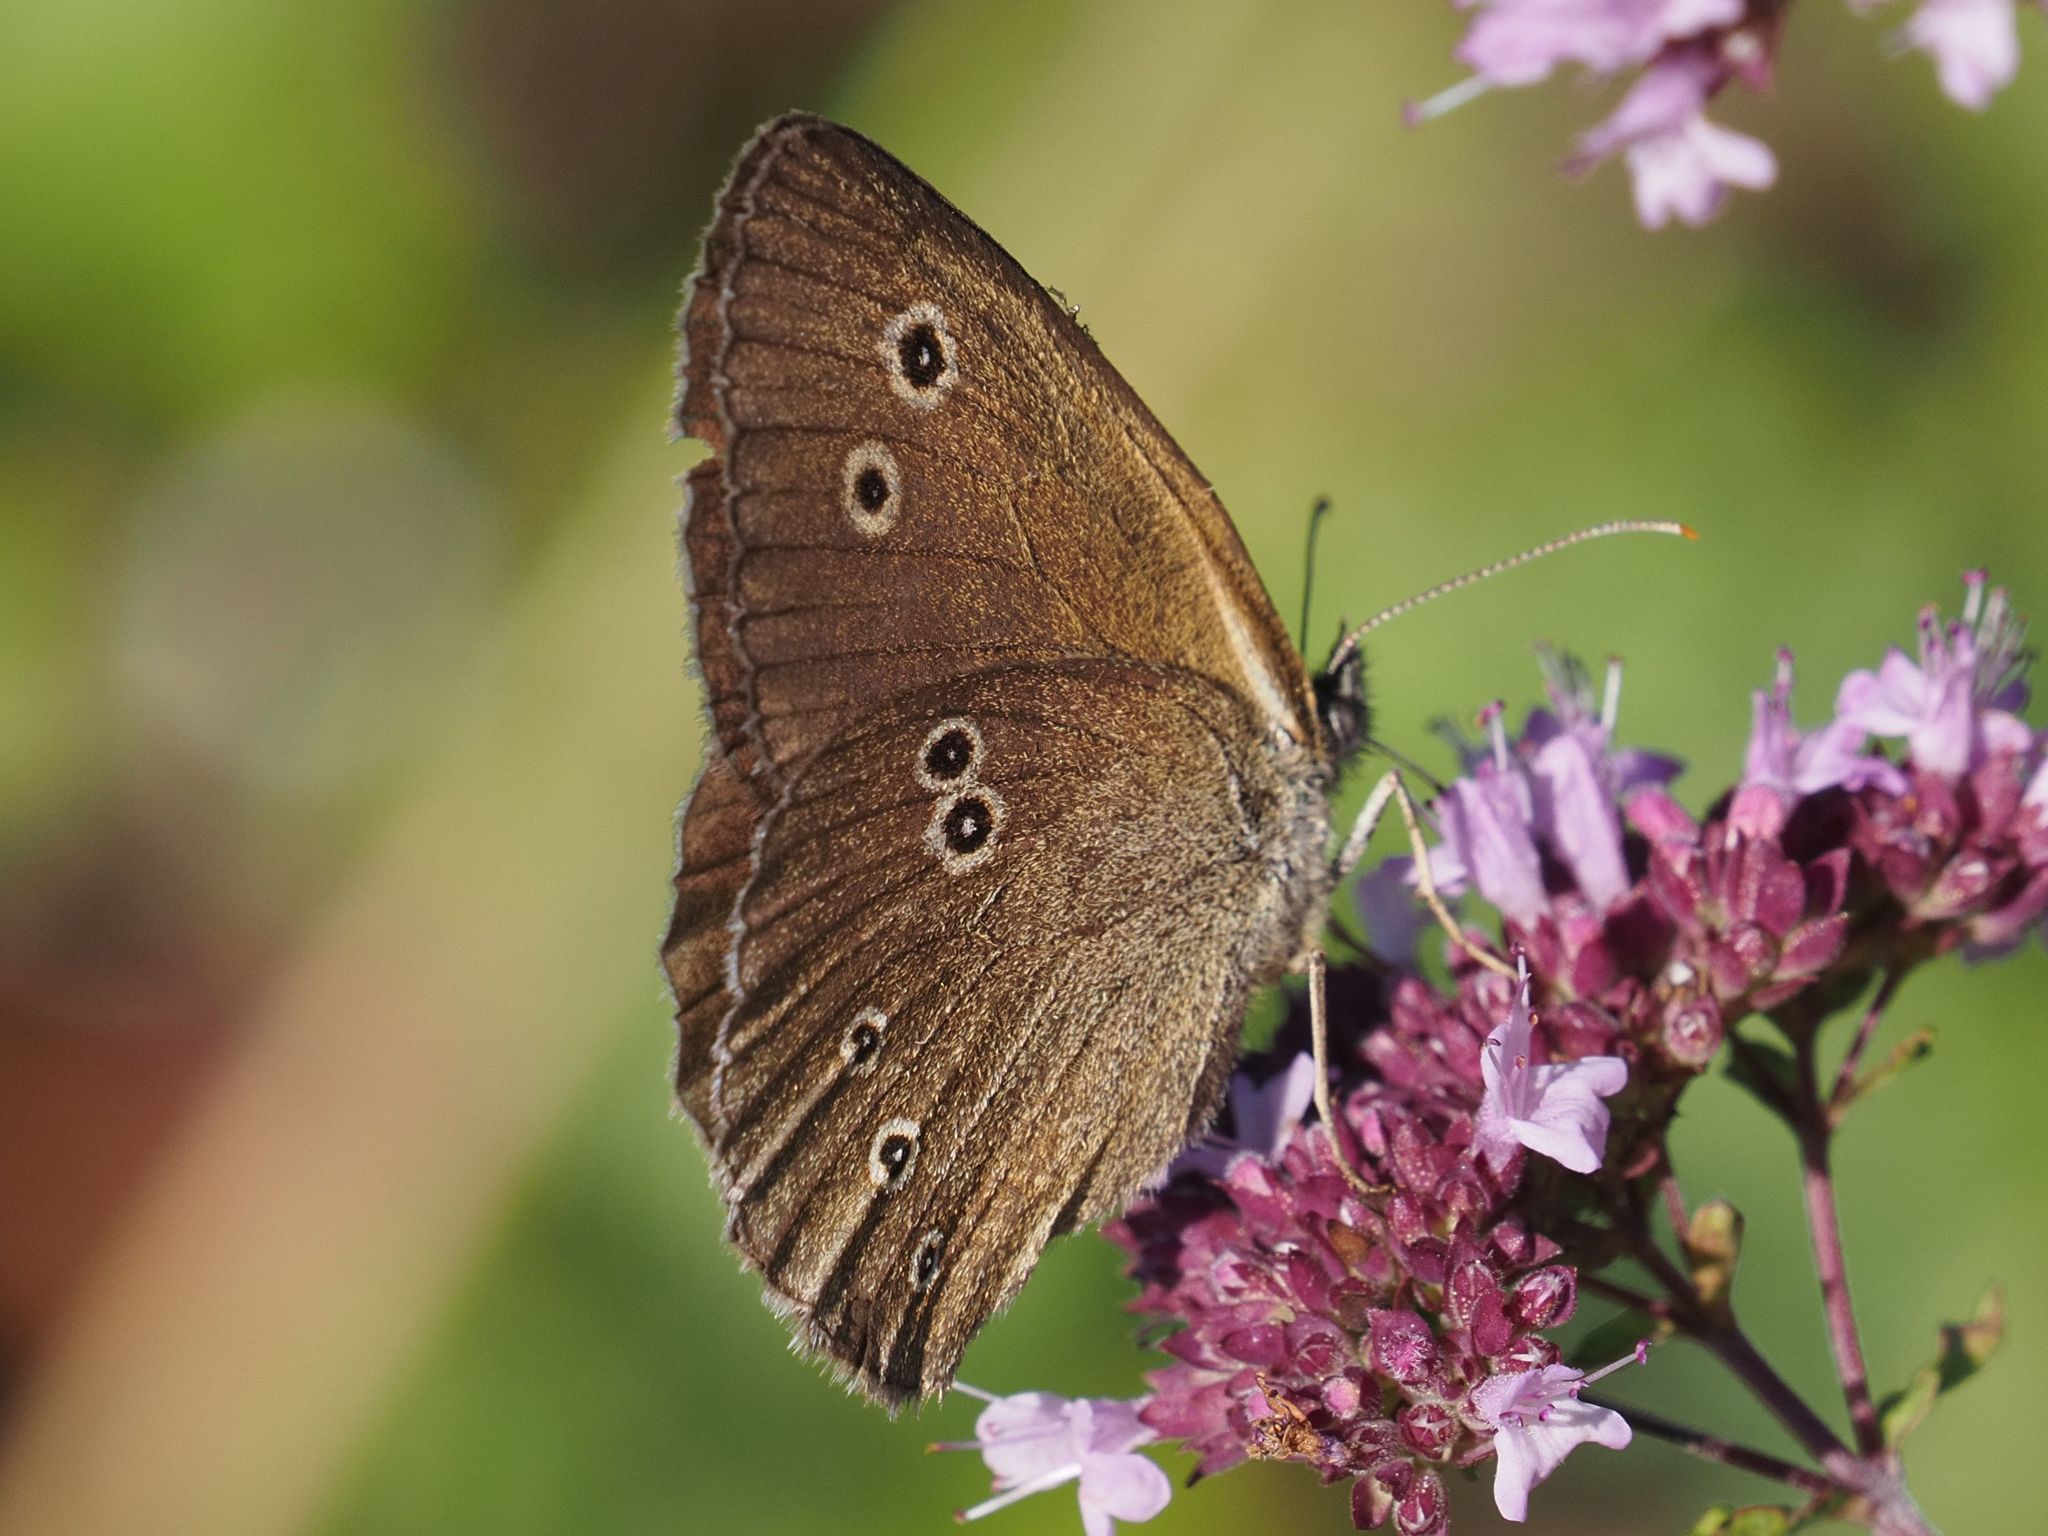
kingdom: Animalia
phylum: Arthropoda
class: Insecta
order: Lepidoptera
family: Nymphalidae
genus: Aphantopus
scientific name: Aphantopus hyperantus
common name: Ringlet
